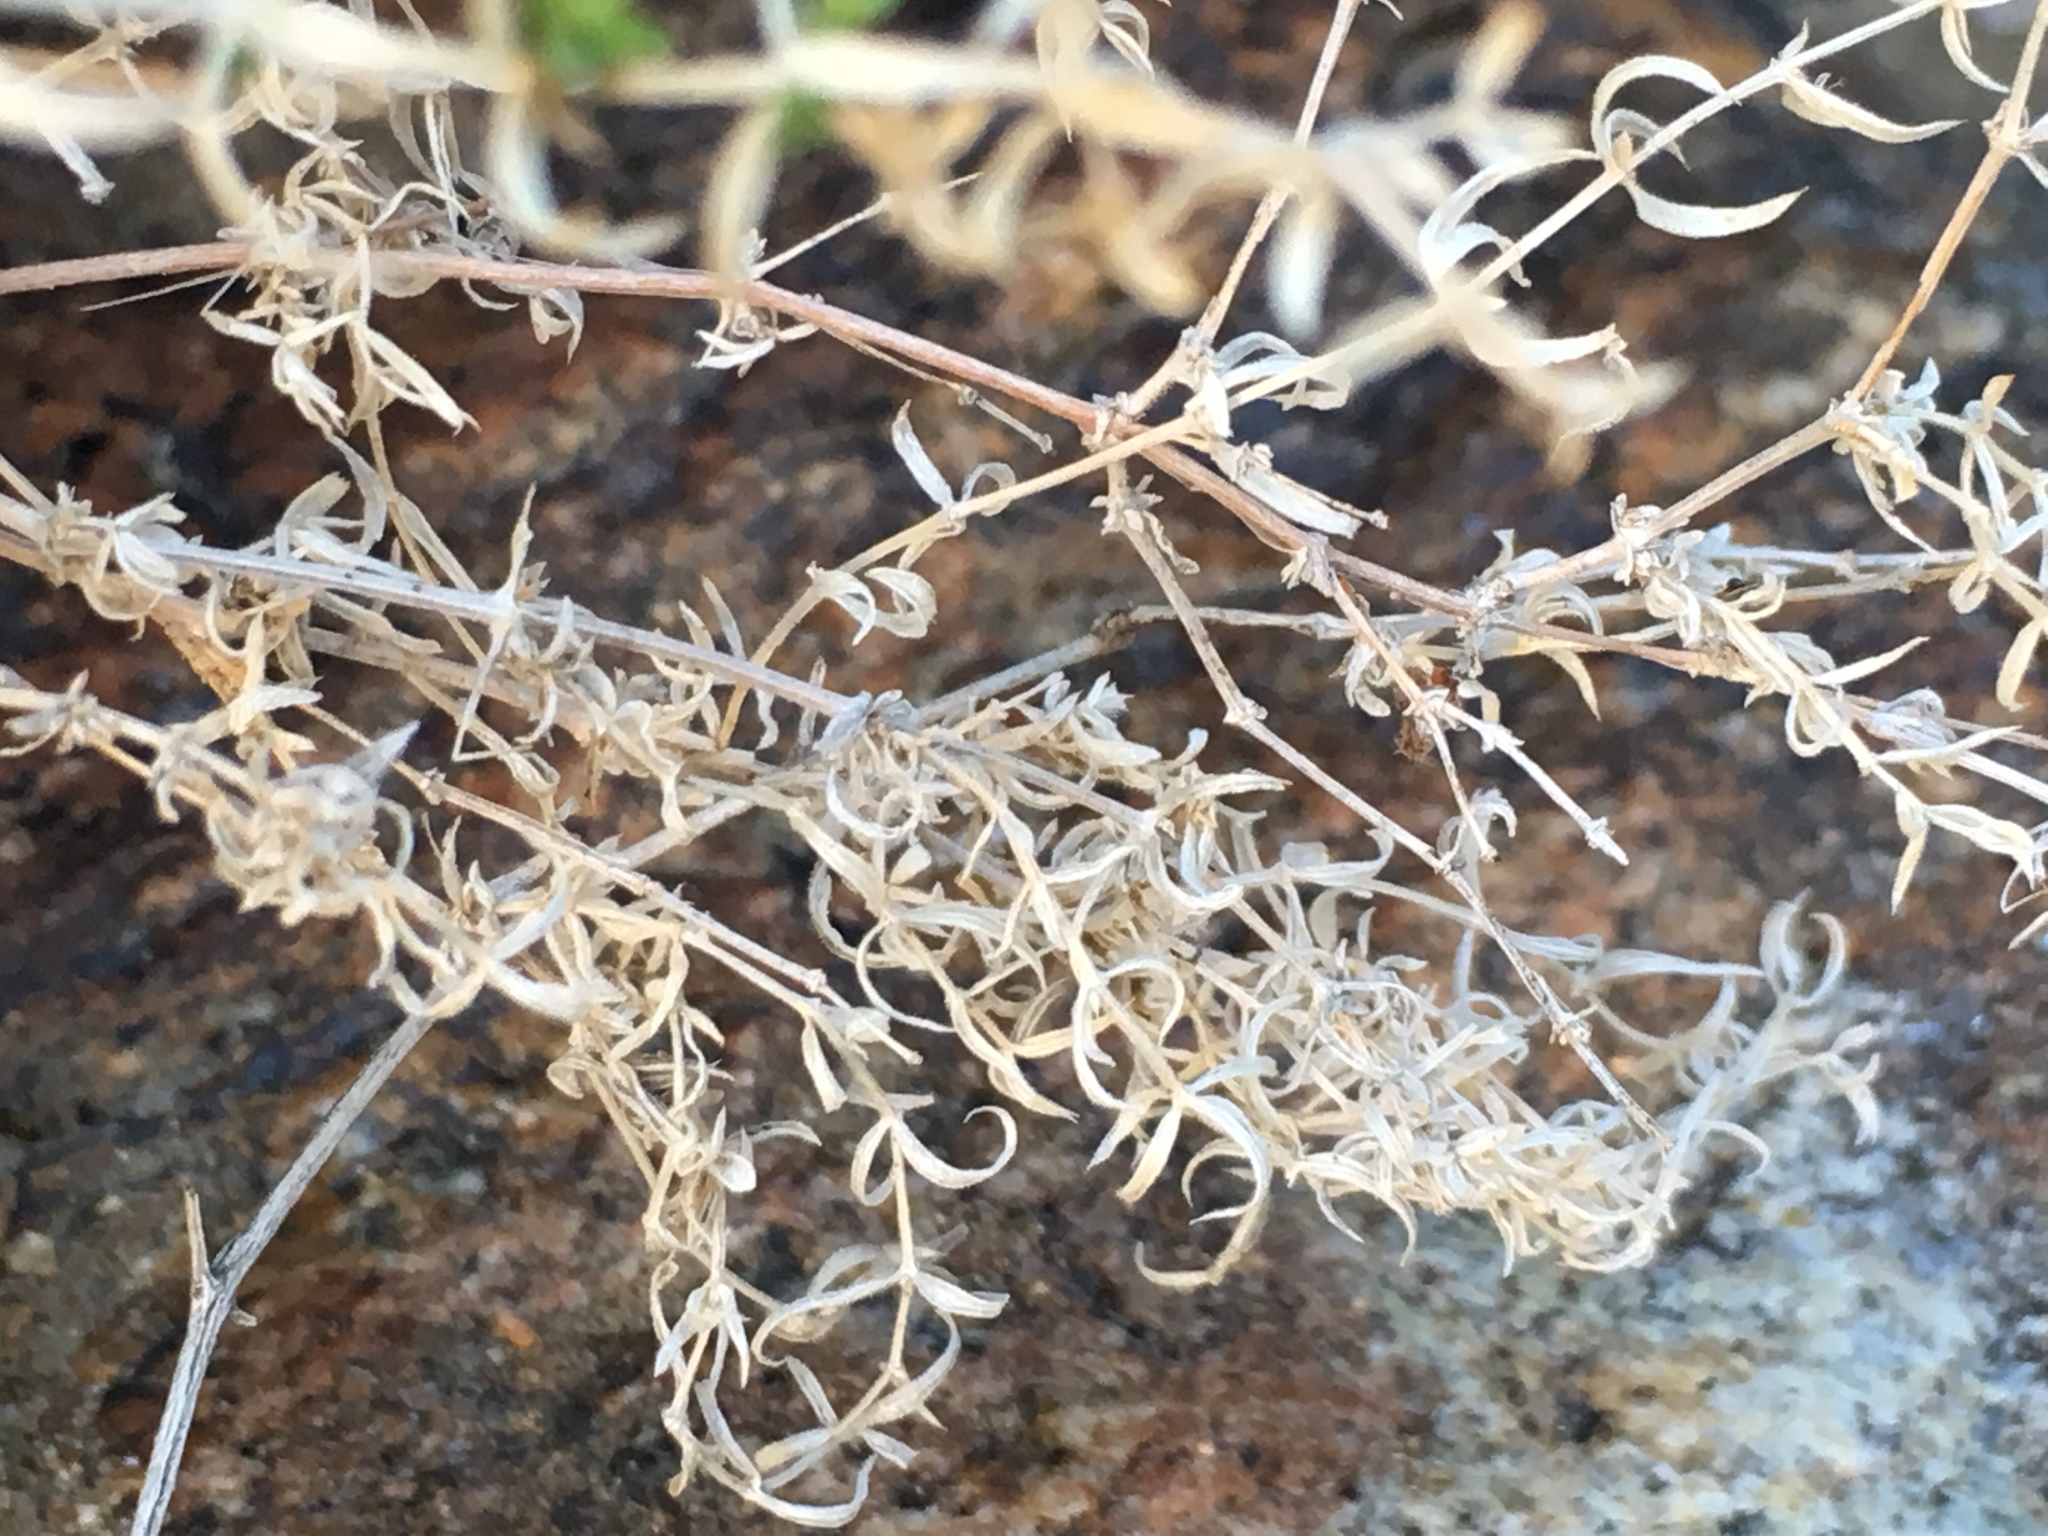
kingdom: Plantae
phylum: Tracheophyta
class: Magnoliopsida
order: Gentianales
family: Rubiaceae
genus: Galium
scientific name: Galium stellatum
